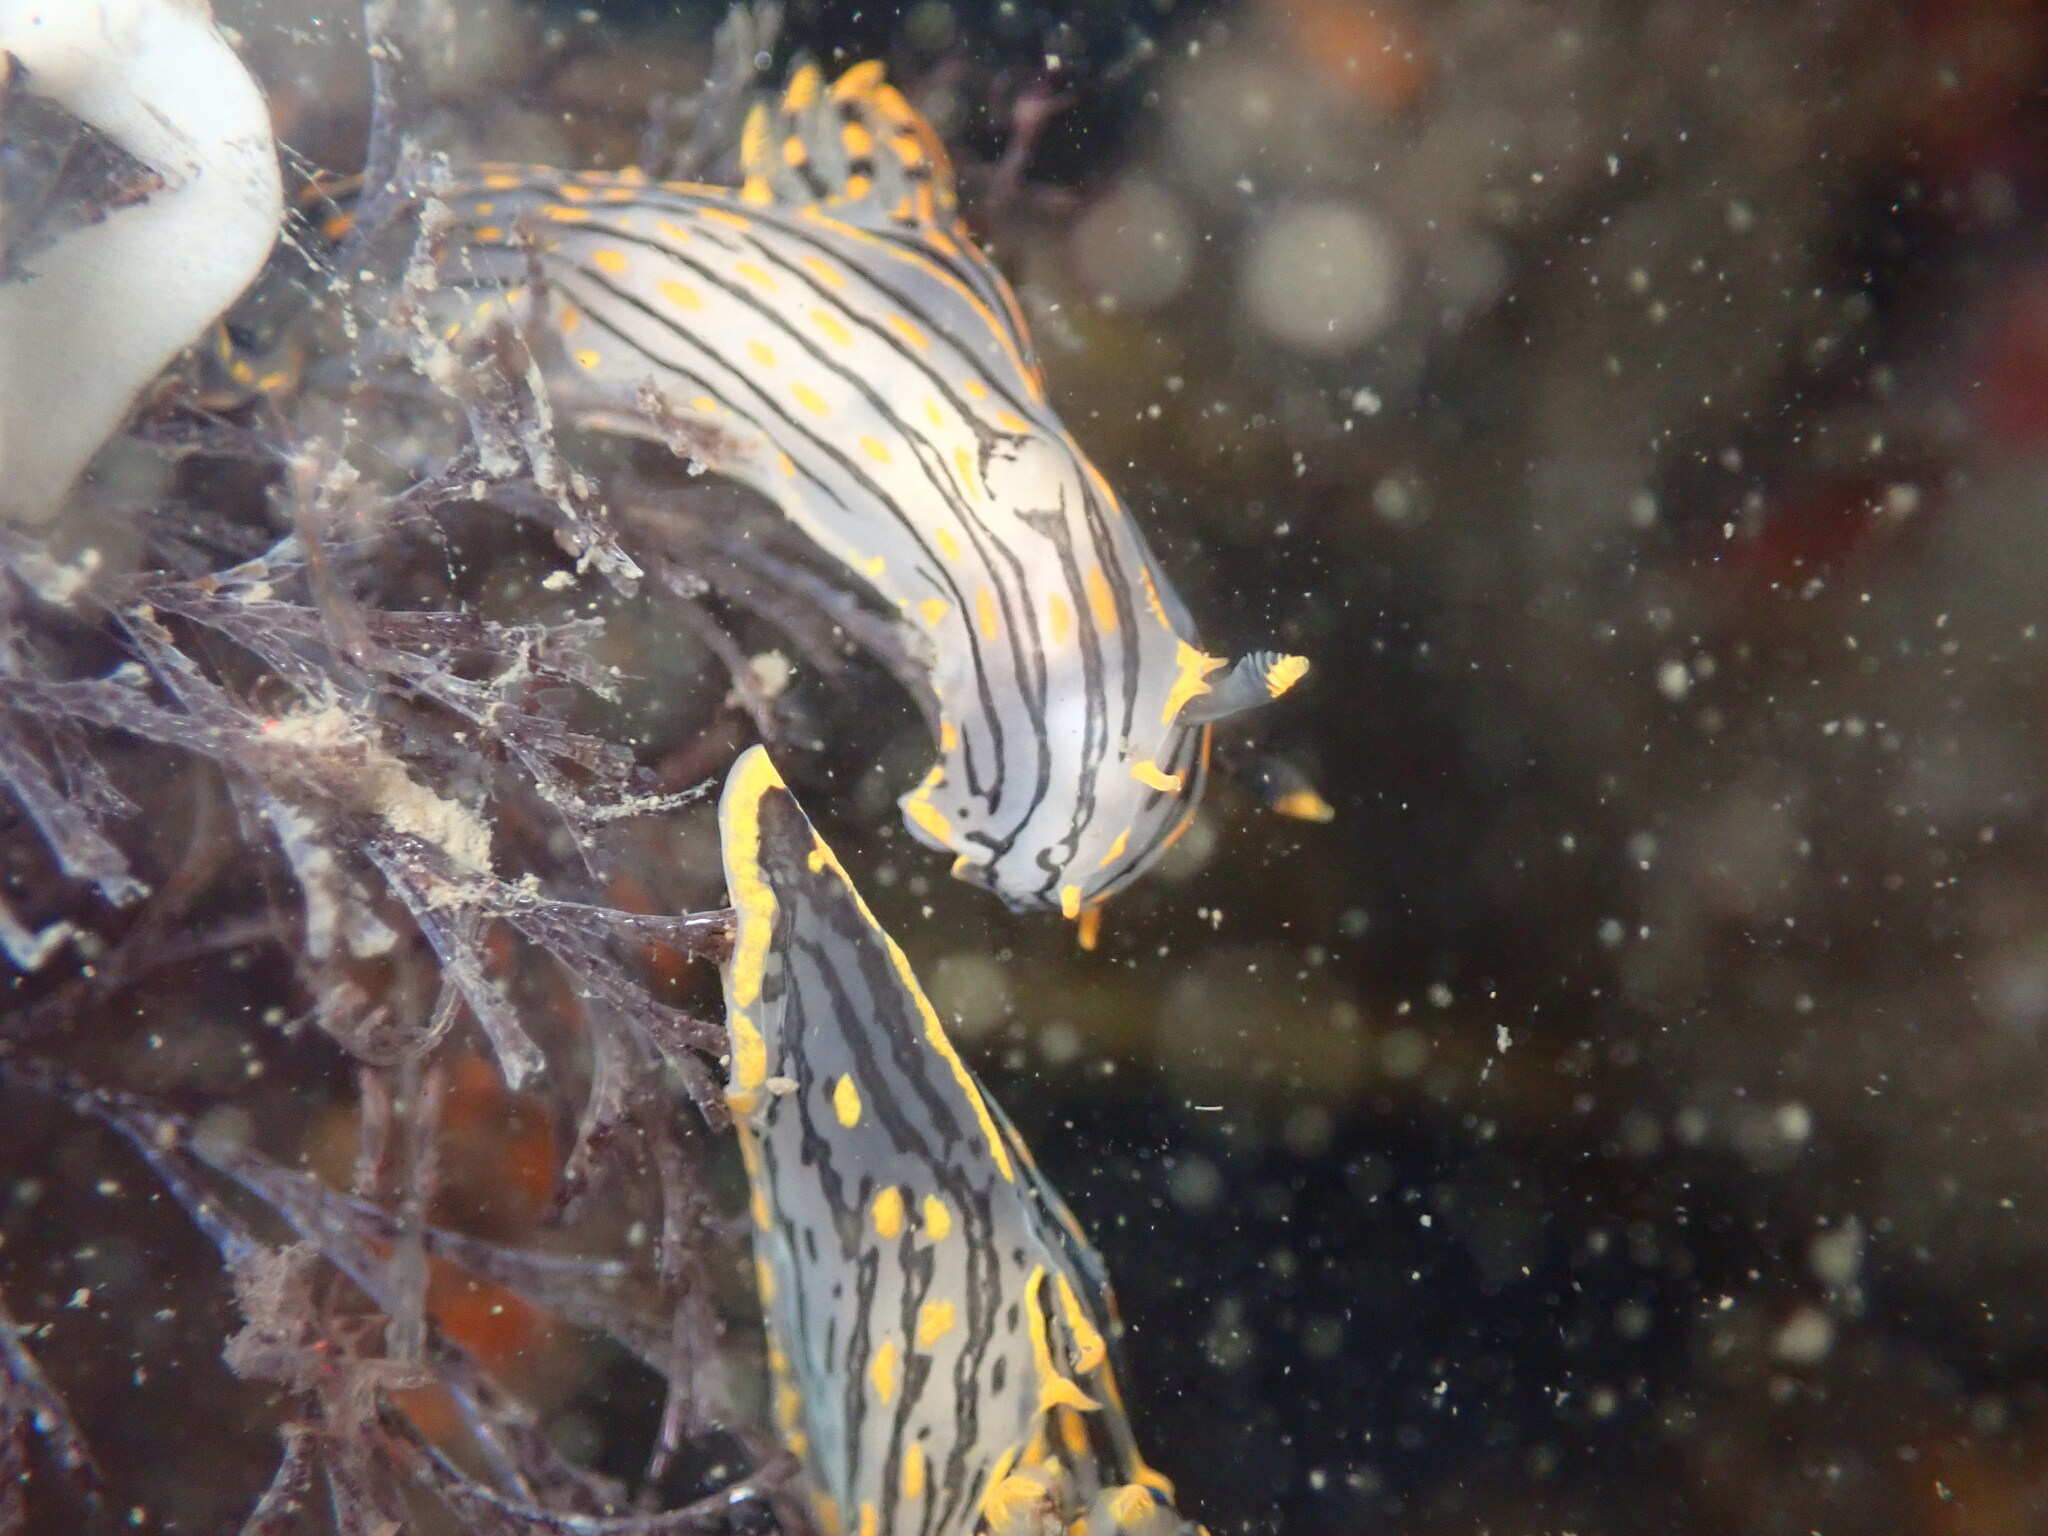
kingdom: Animalia
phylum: Mollusca
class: Gastropoda
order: Nudibranchia
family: Polyceridae
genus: Polycera
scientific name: Polycera atra
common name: Orange-spike polycera
